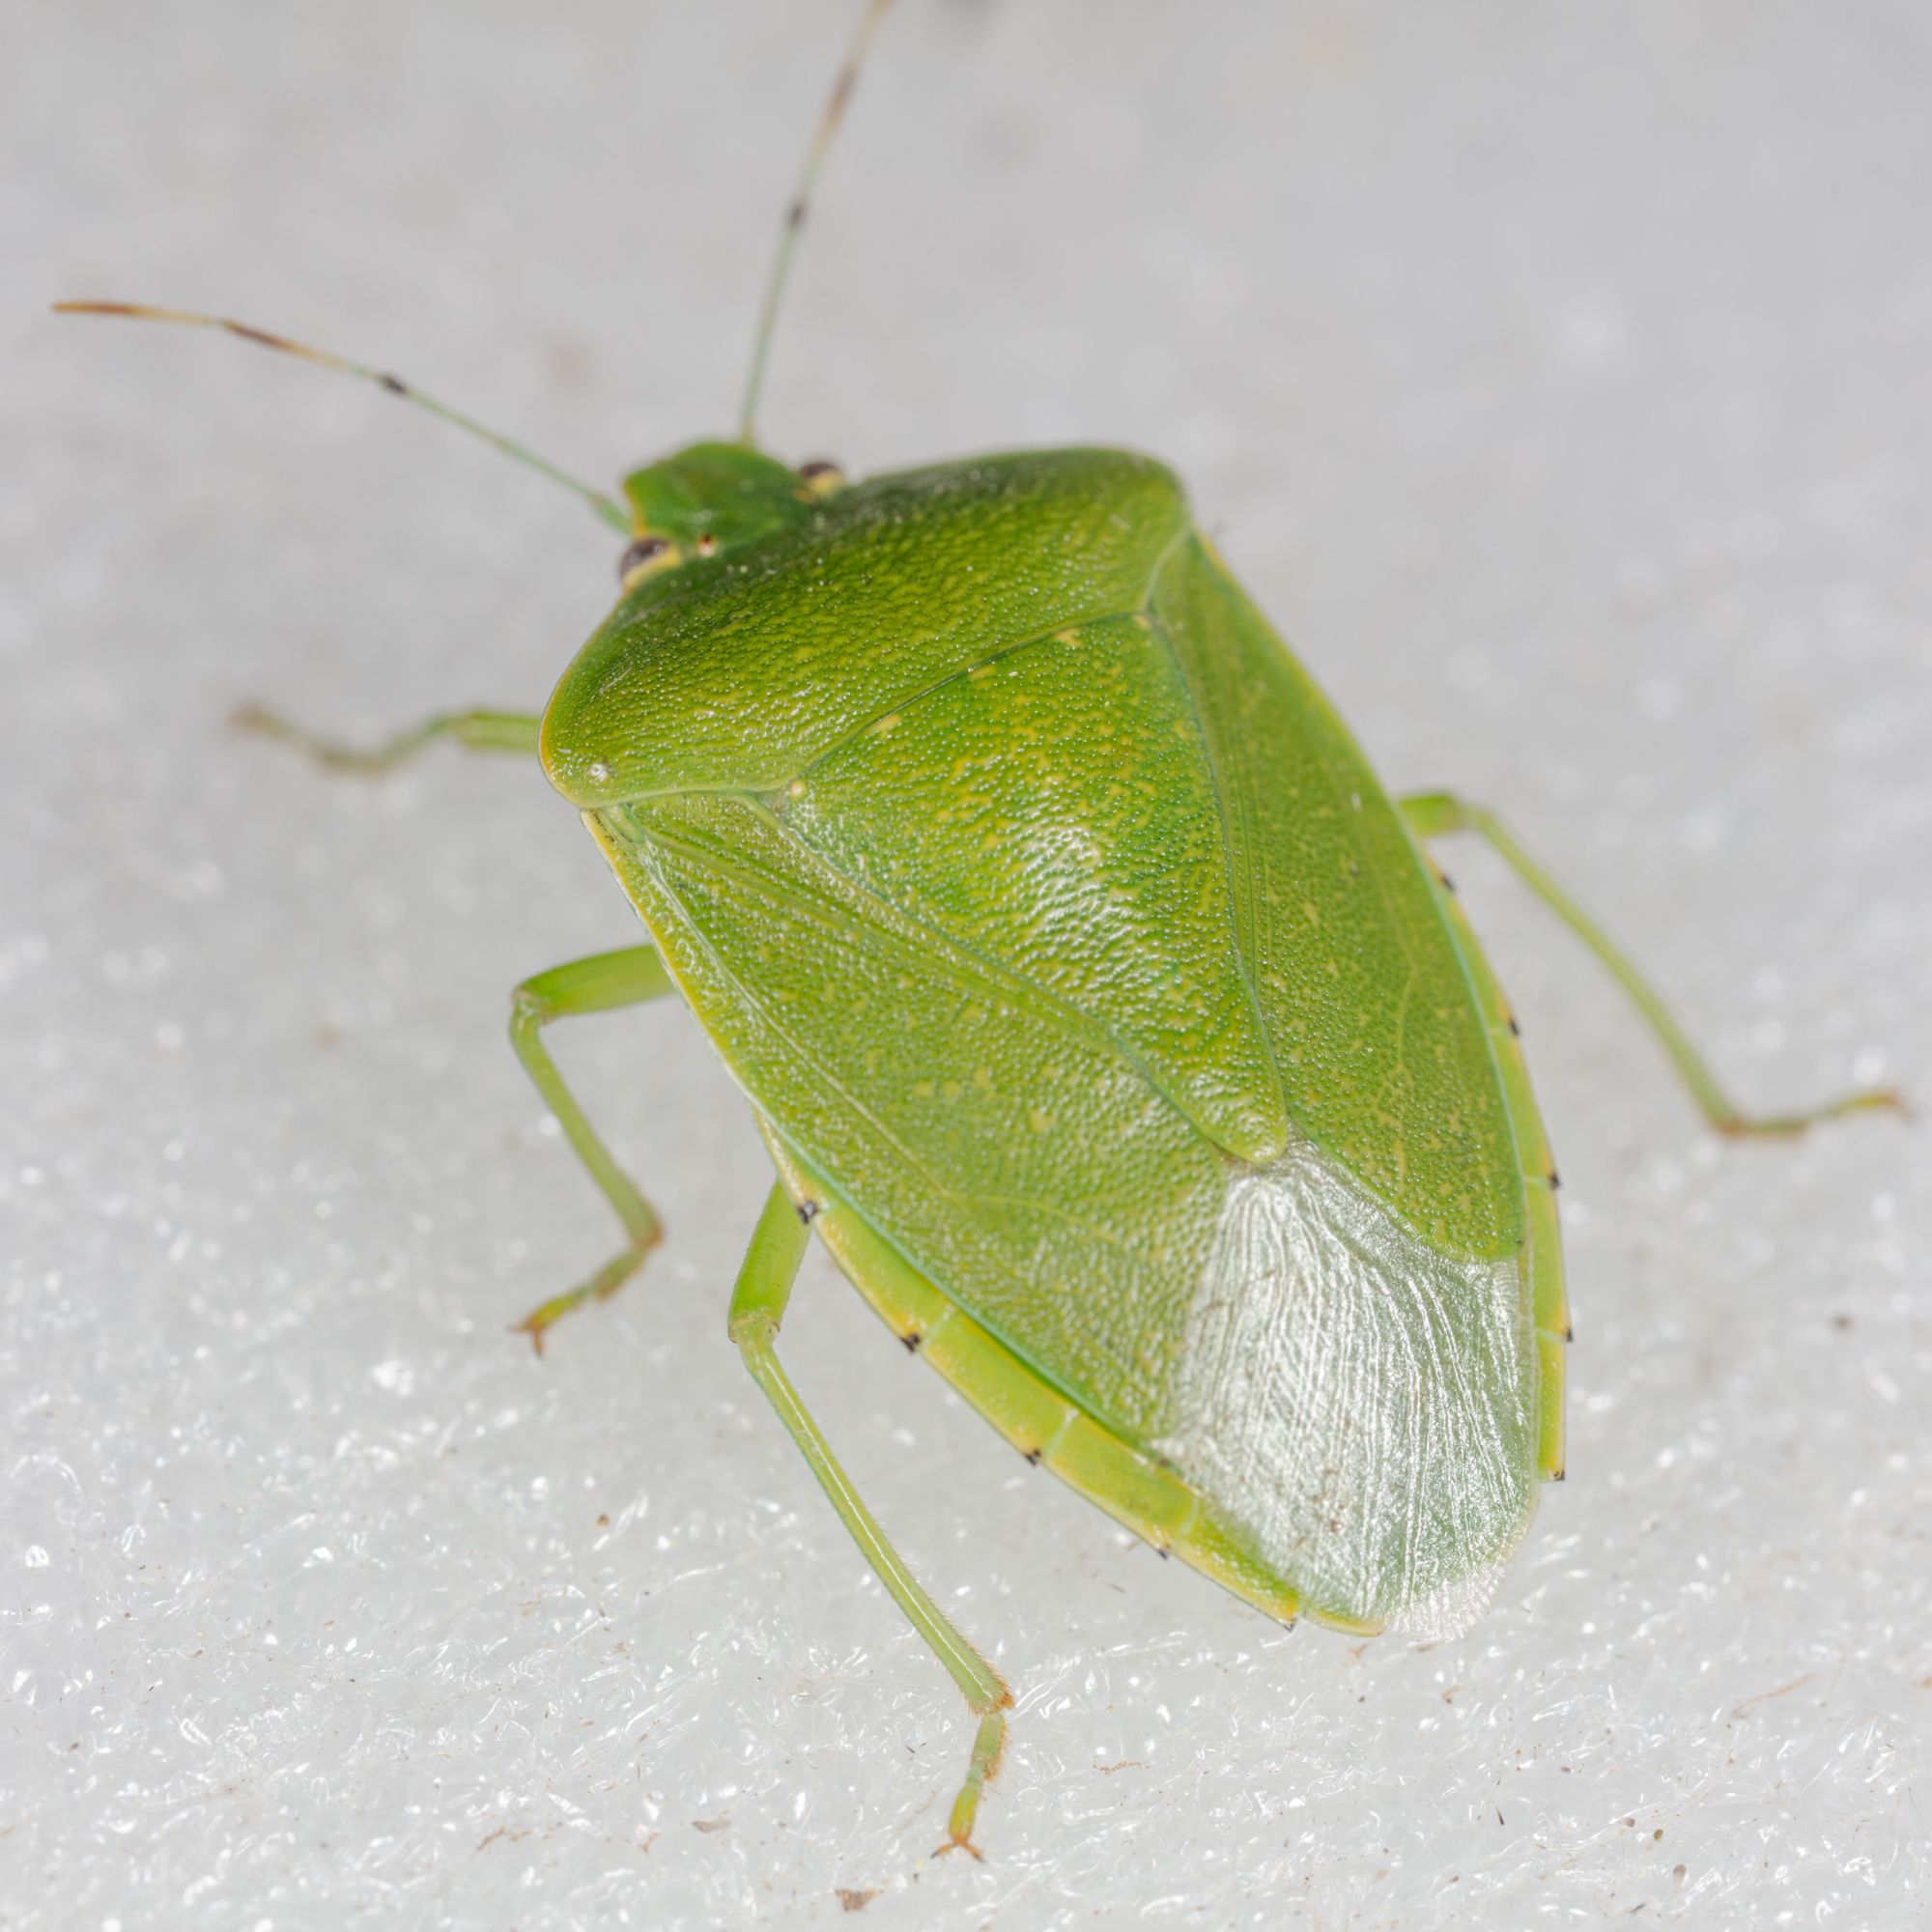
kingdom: Animalia
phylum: Arthropoda
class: Insecta
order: Hemiptera
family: Pentatomidae
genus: Chinavia
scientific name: Chinavia hilaris
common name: Green stink bug
